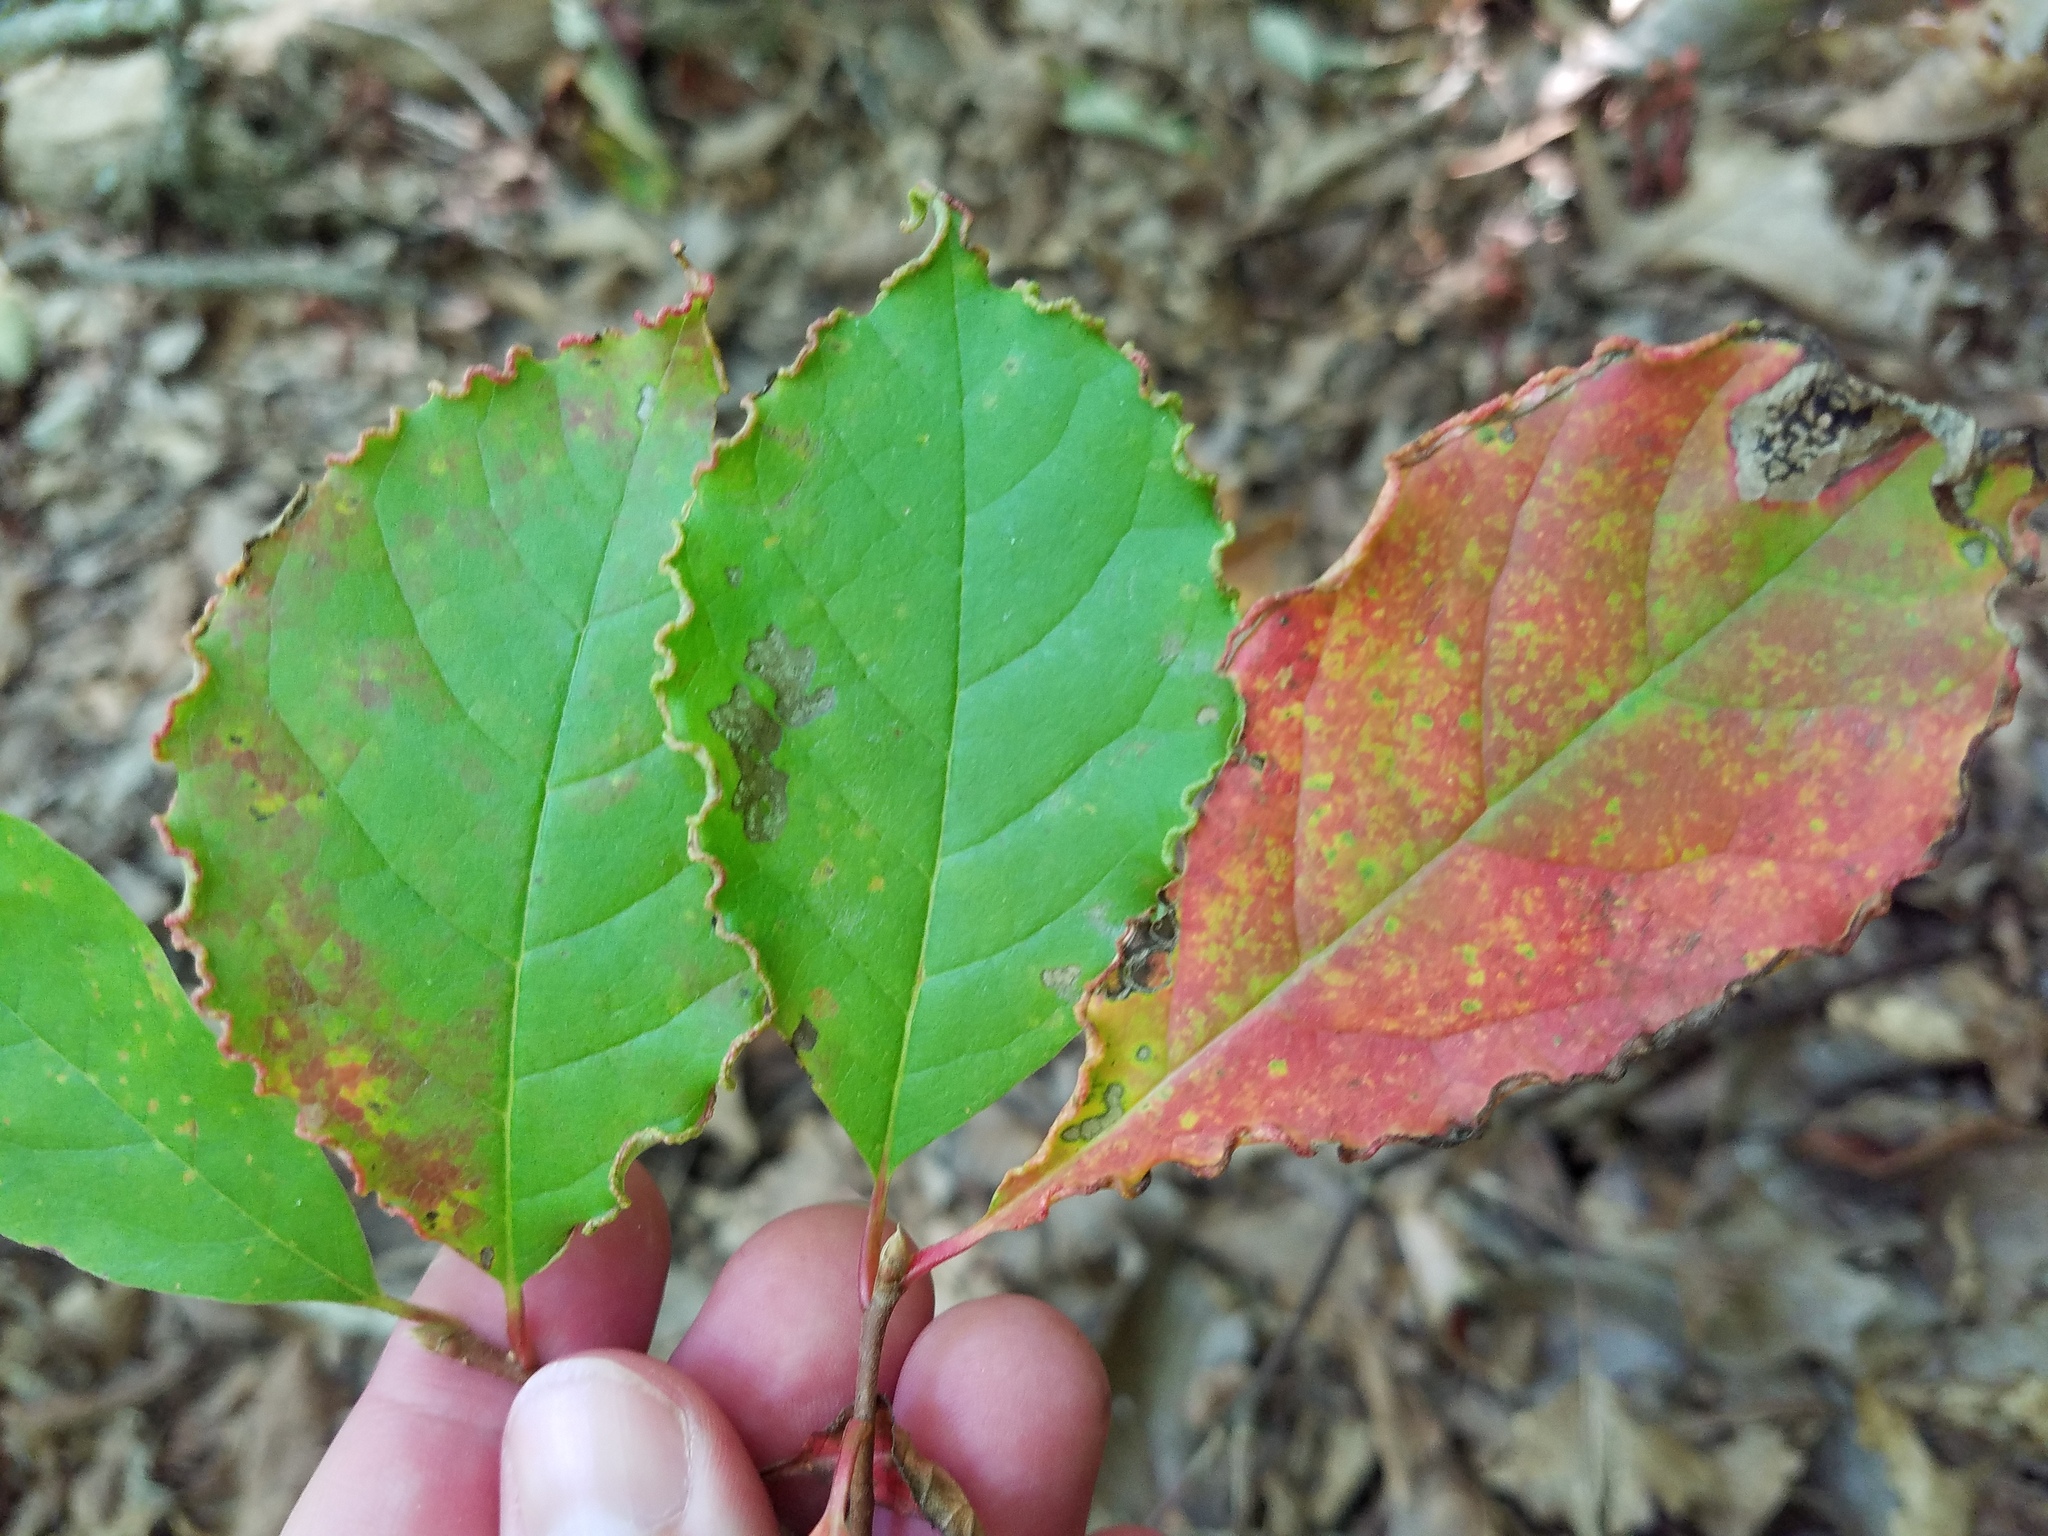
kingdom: Animalia
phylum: Arthropoda
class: Arachnida
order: Trombidiformes
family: Eriophyidae
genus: Aceria
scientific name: Aceria
